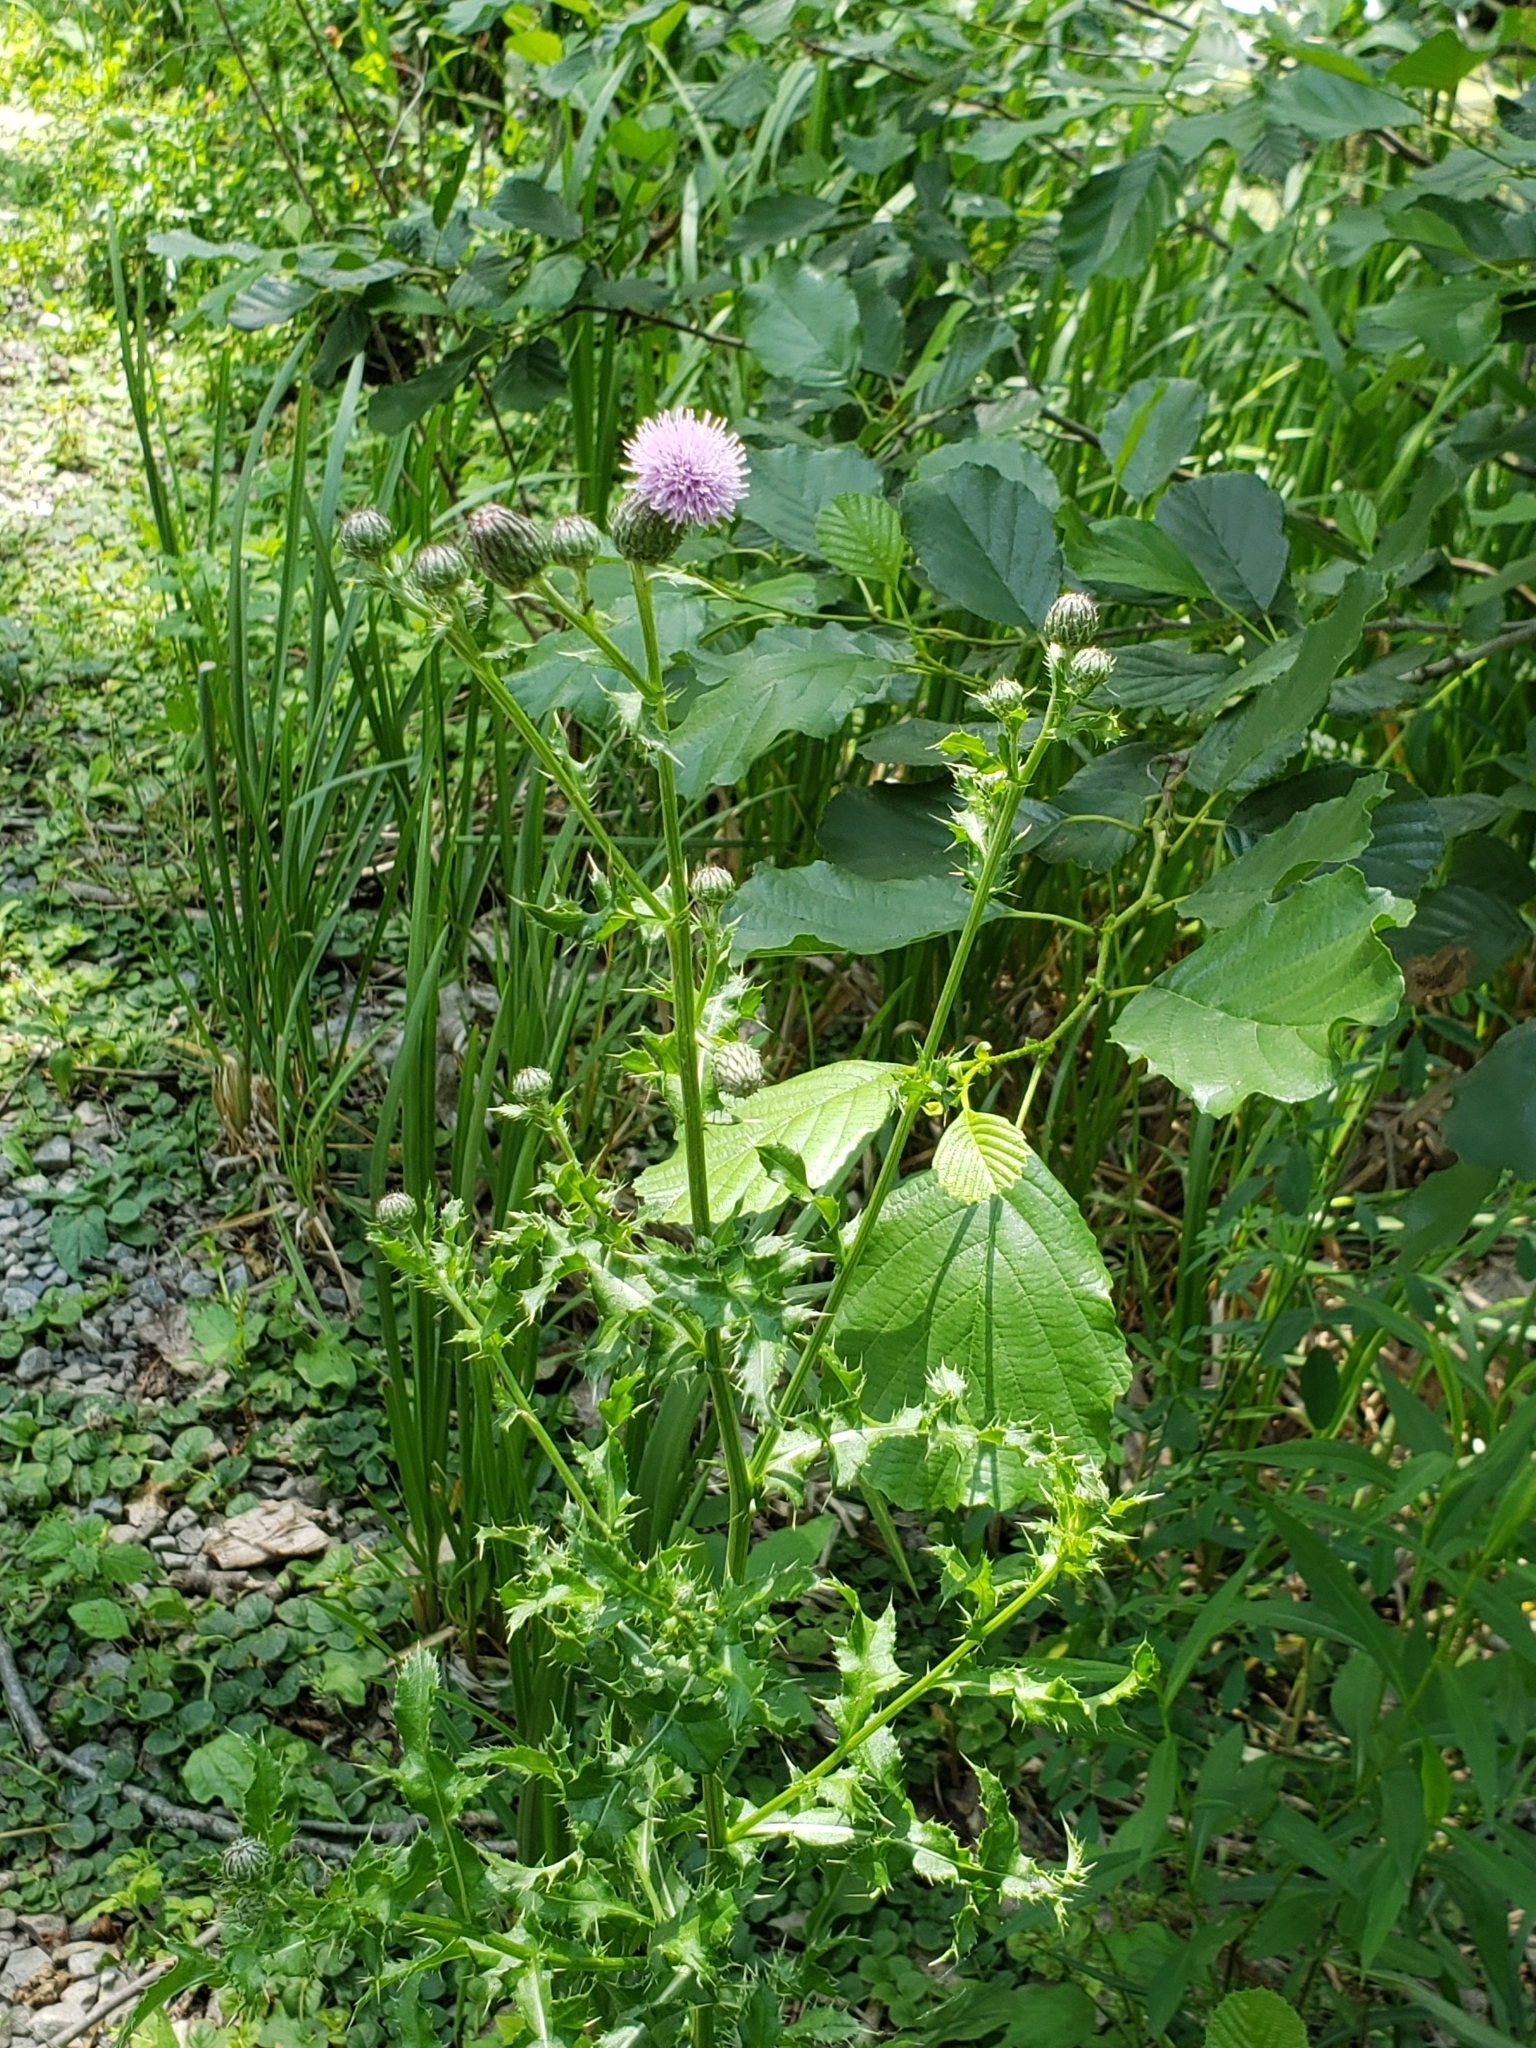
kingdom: Plantae
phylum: Tracheophyta
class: Magnoliopsida
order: Asterales
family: Asteraceae
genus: Cirsium
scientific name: Cirsium arvense
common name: Creeping thistle
